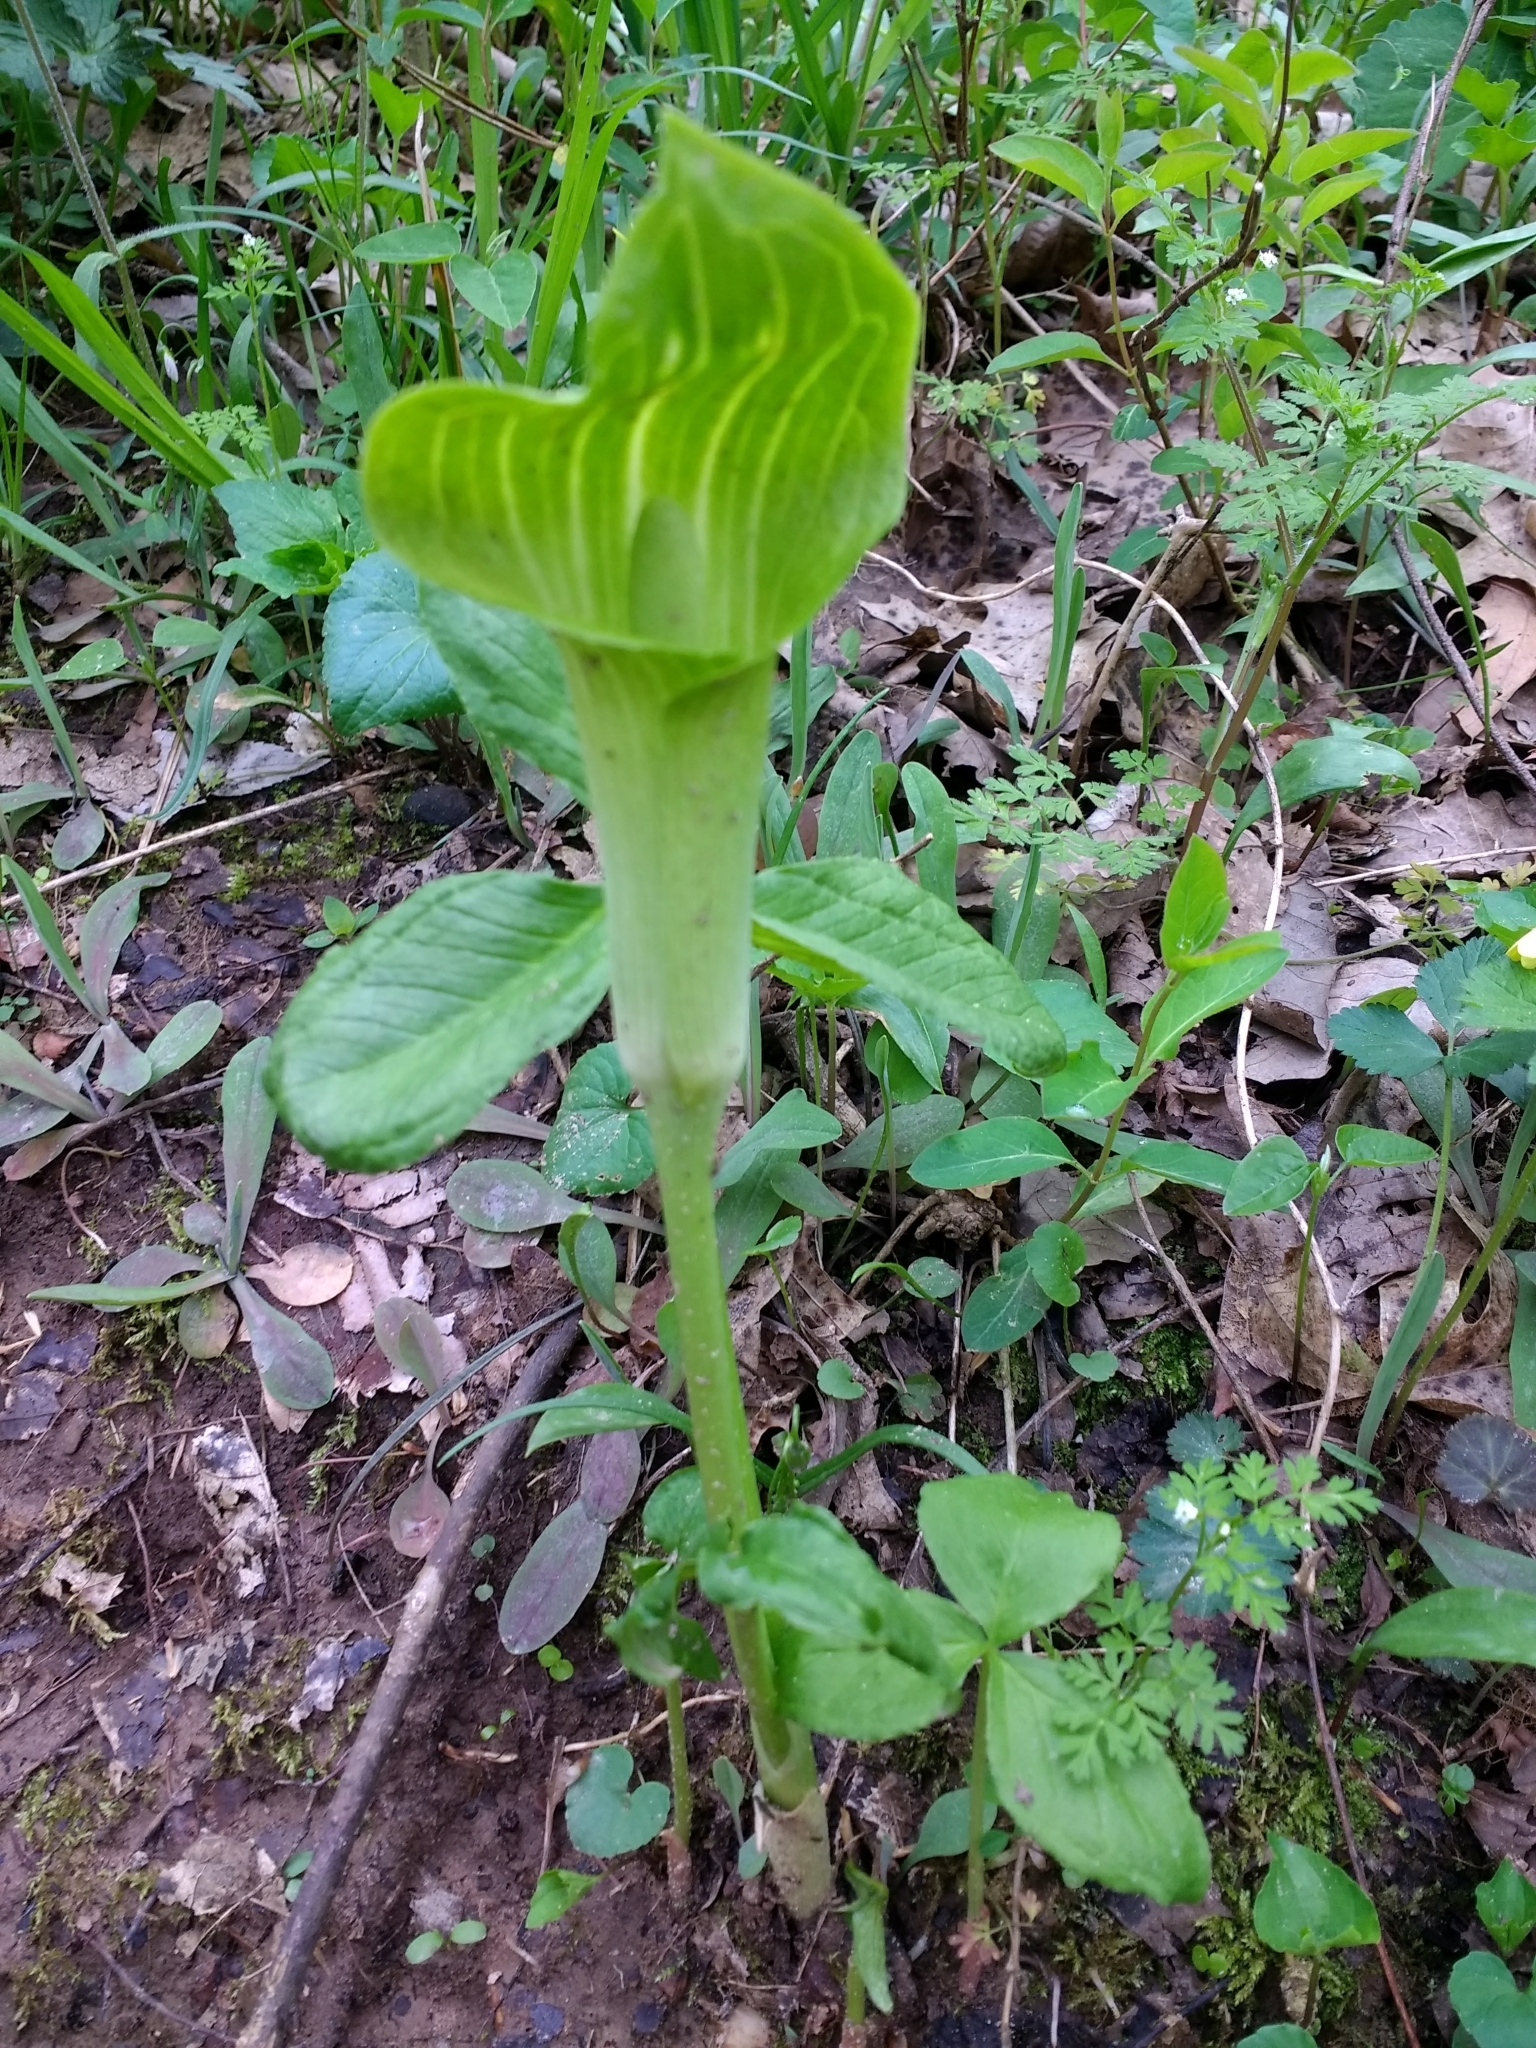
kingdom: Plantae
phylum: Tracheophyta
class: Liliopsida
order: Alismatales
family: Araceae
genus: Arisaema
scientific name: Arisaema triphyllum
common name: Jack-in-the-pulpit
